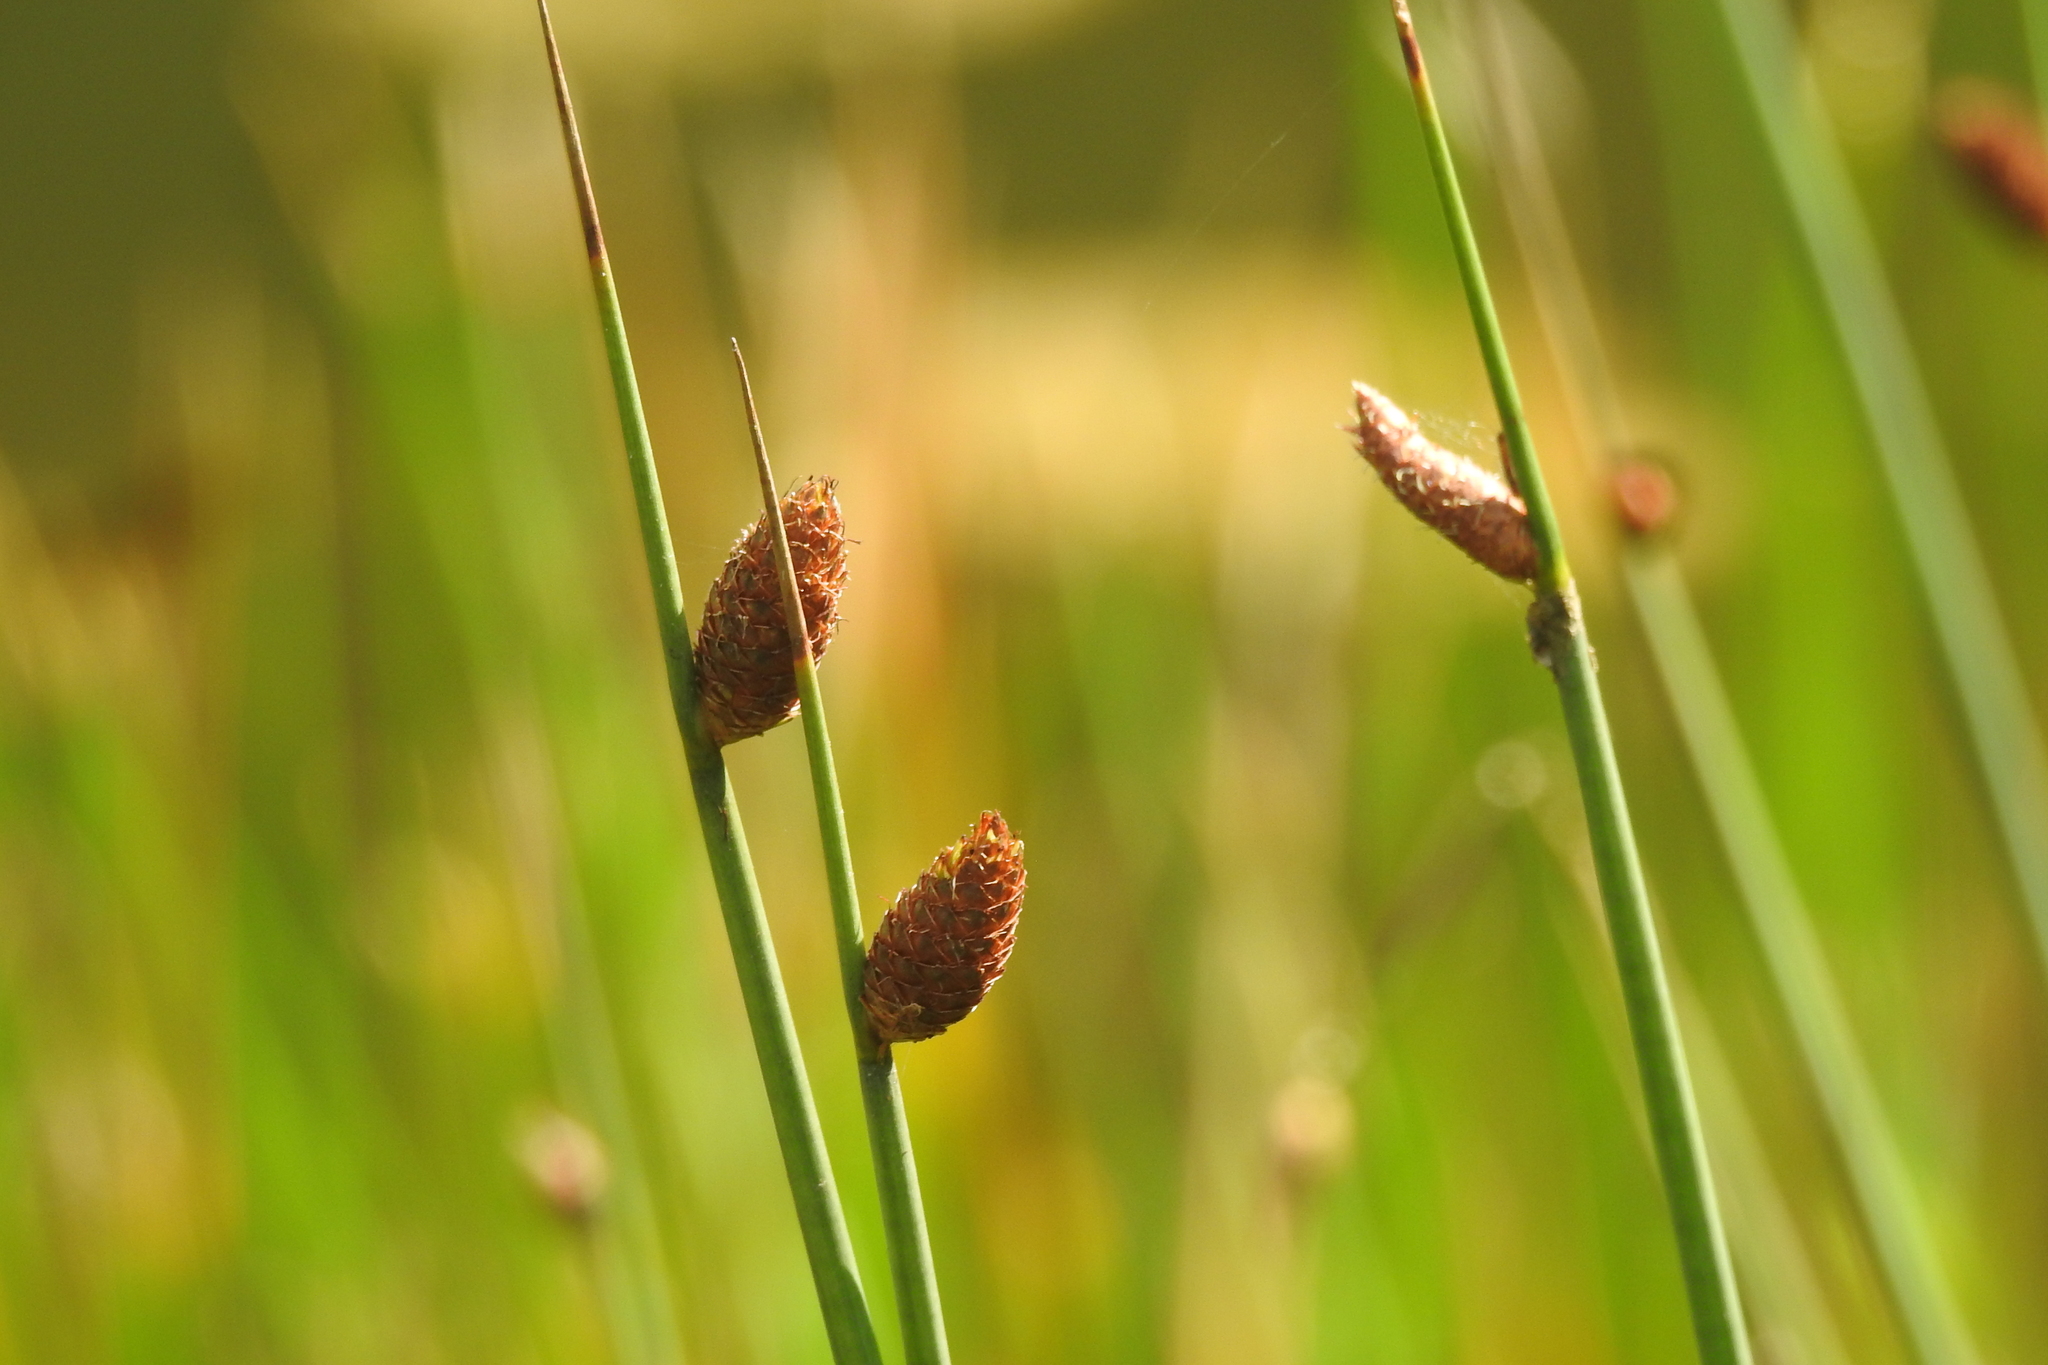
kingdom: Plantae
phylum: Tracheophyta
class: Liliopsida
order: Poales
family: Cyperaceae
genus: Lepironia
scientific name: Lepironia articulata
